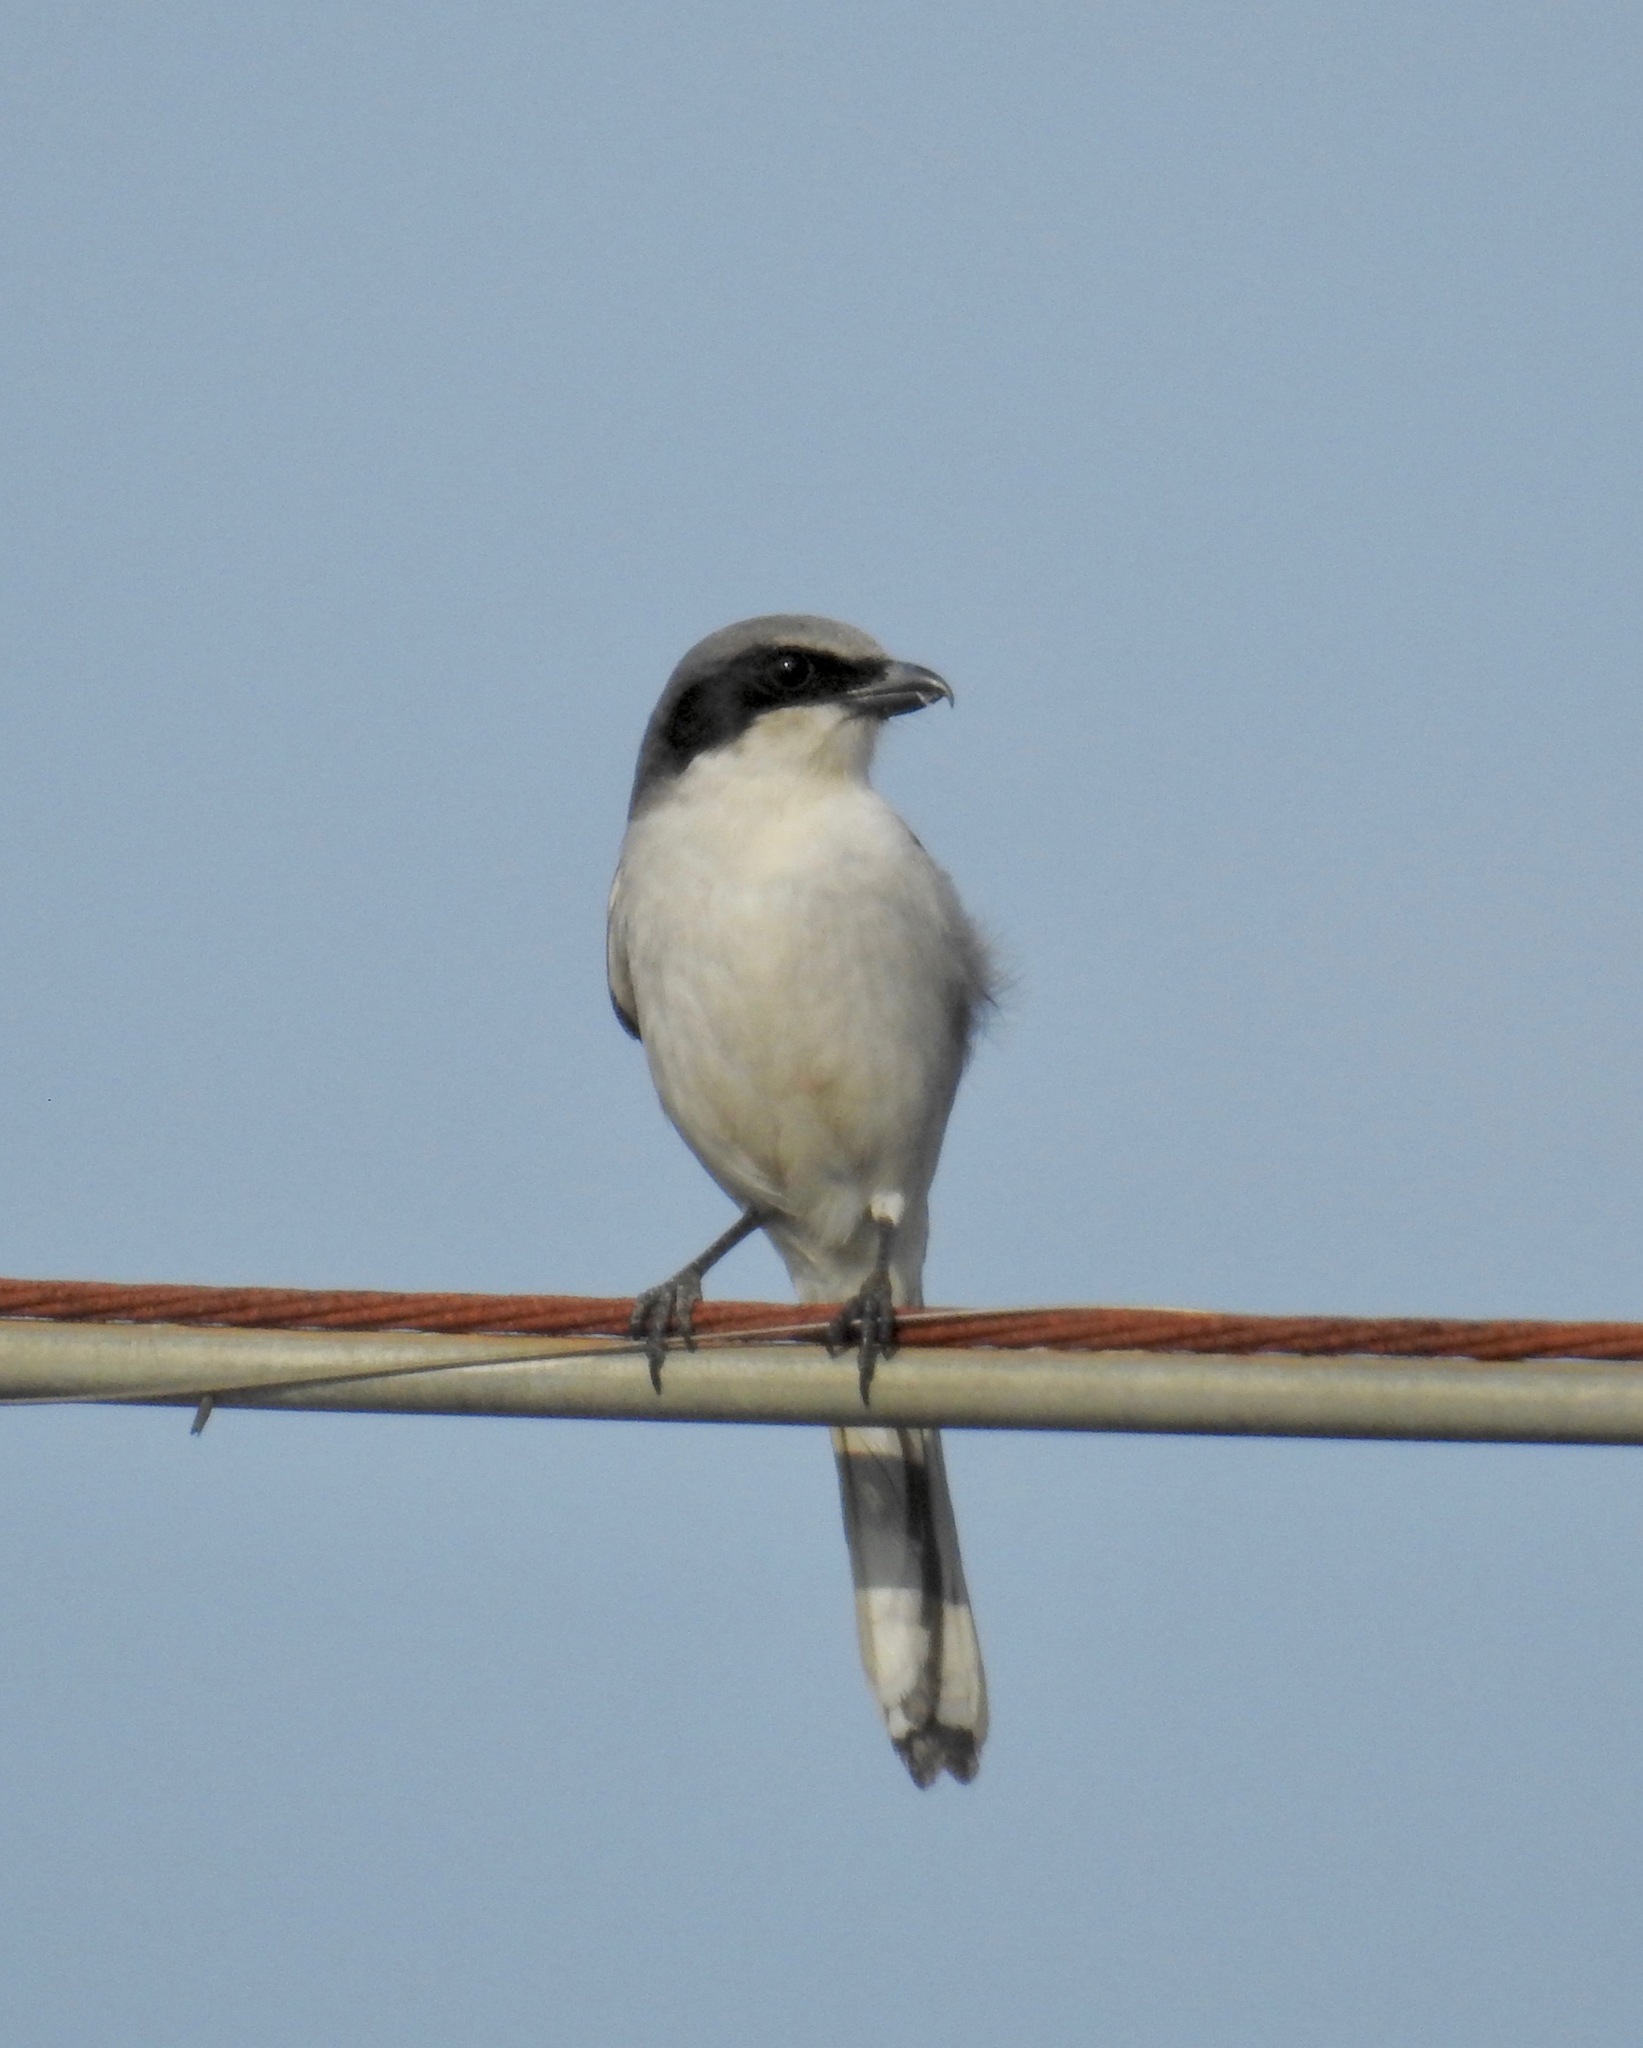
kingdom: Animalia
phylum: Chordata
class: Aves
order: Passeriformes
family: Laniidae
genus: Lanius
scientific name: Lanius ludovicianus
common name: Loggerhead shrike
